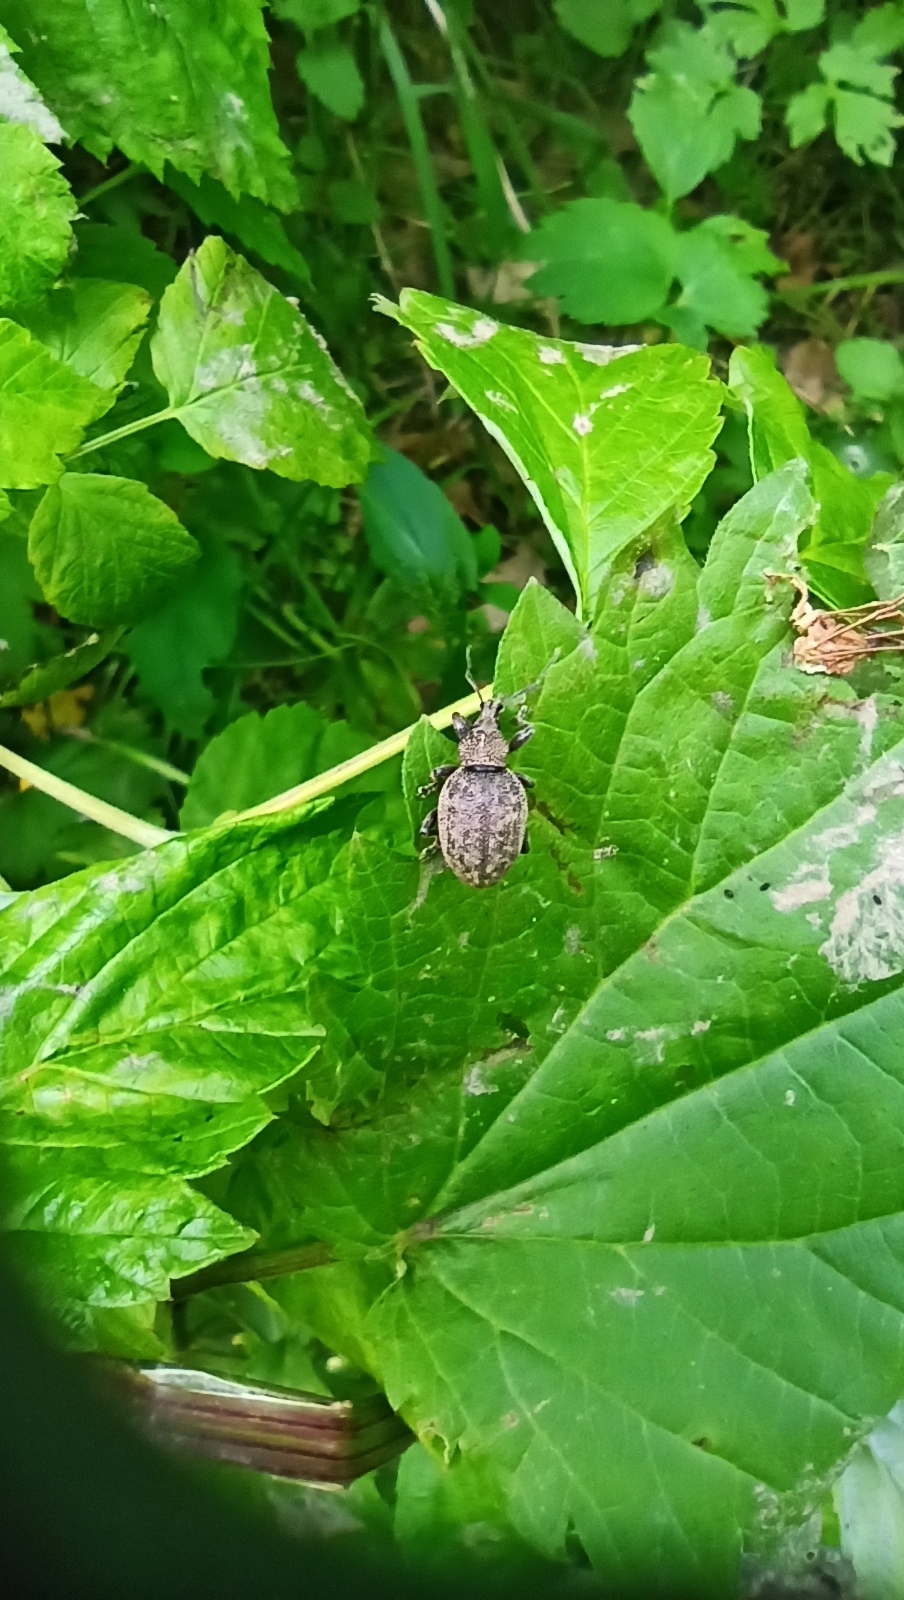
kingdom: Animalia
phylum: Arthropoda
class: Insecta
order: Coleoptera
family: Curculionidae
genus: Otiorhynchus
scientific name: Otiorhynchus ligustici
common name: Weevil
